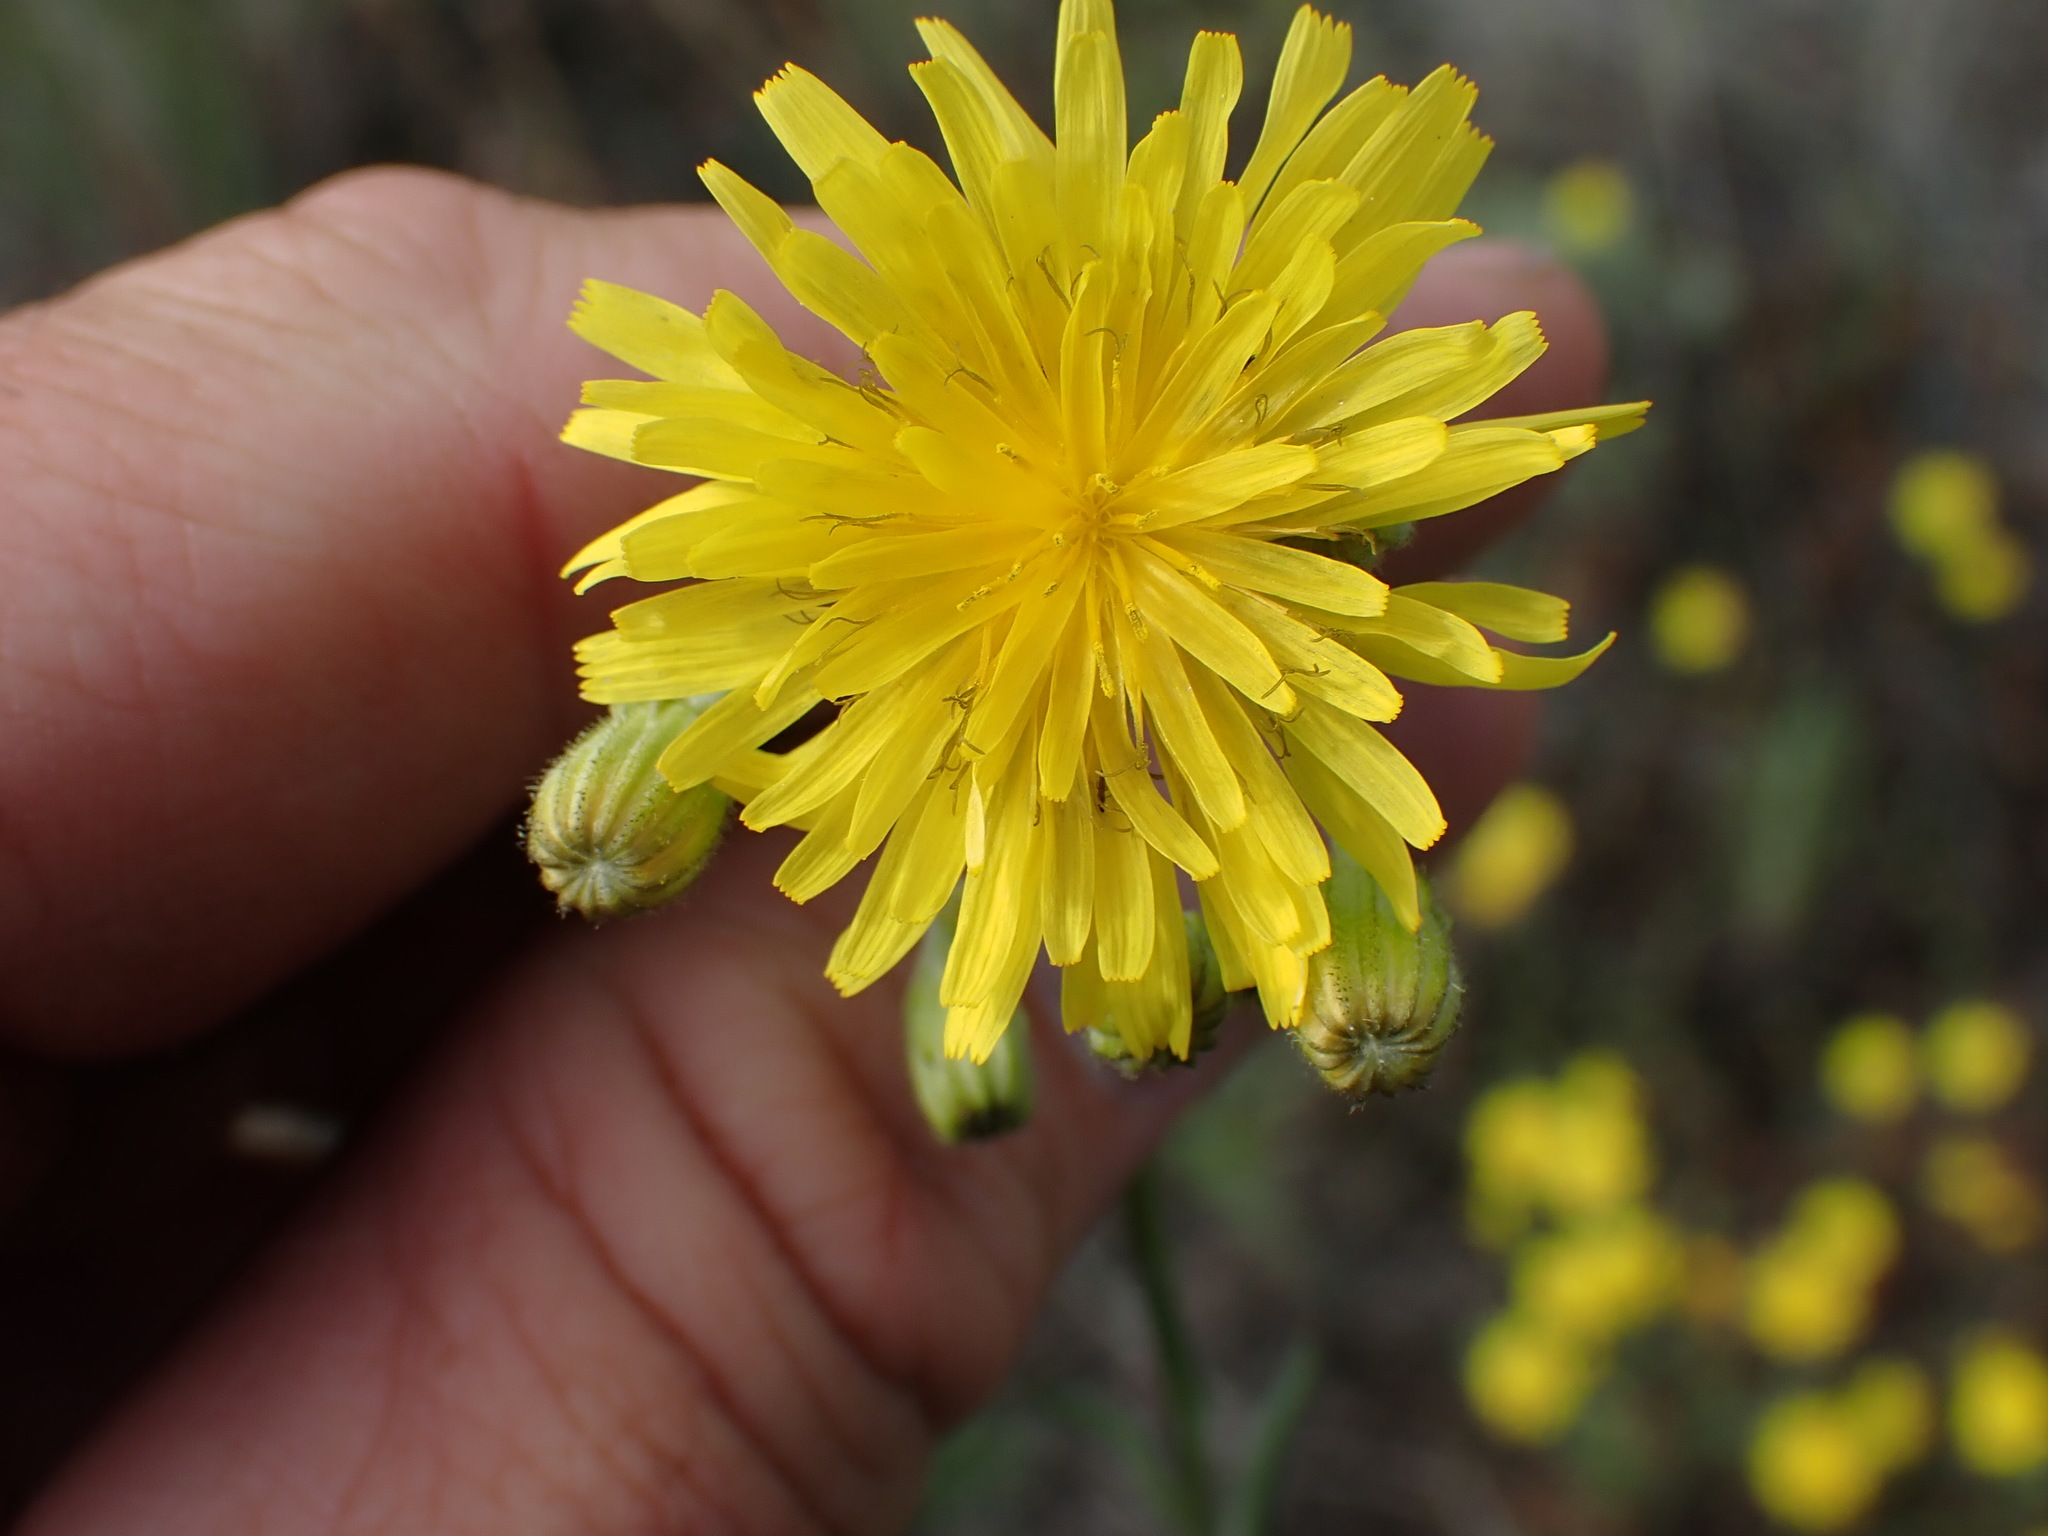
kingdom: Plantae
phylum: Tracheophyta
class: Magnoliopsida
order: Asterales
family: Asteraceae
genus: Crepis
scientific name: Crepis tectorum
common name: Narrow-leaved hawk's-beard
